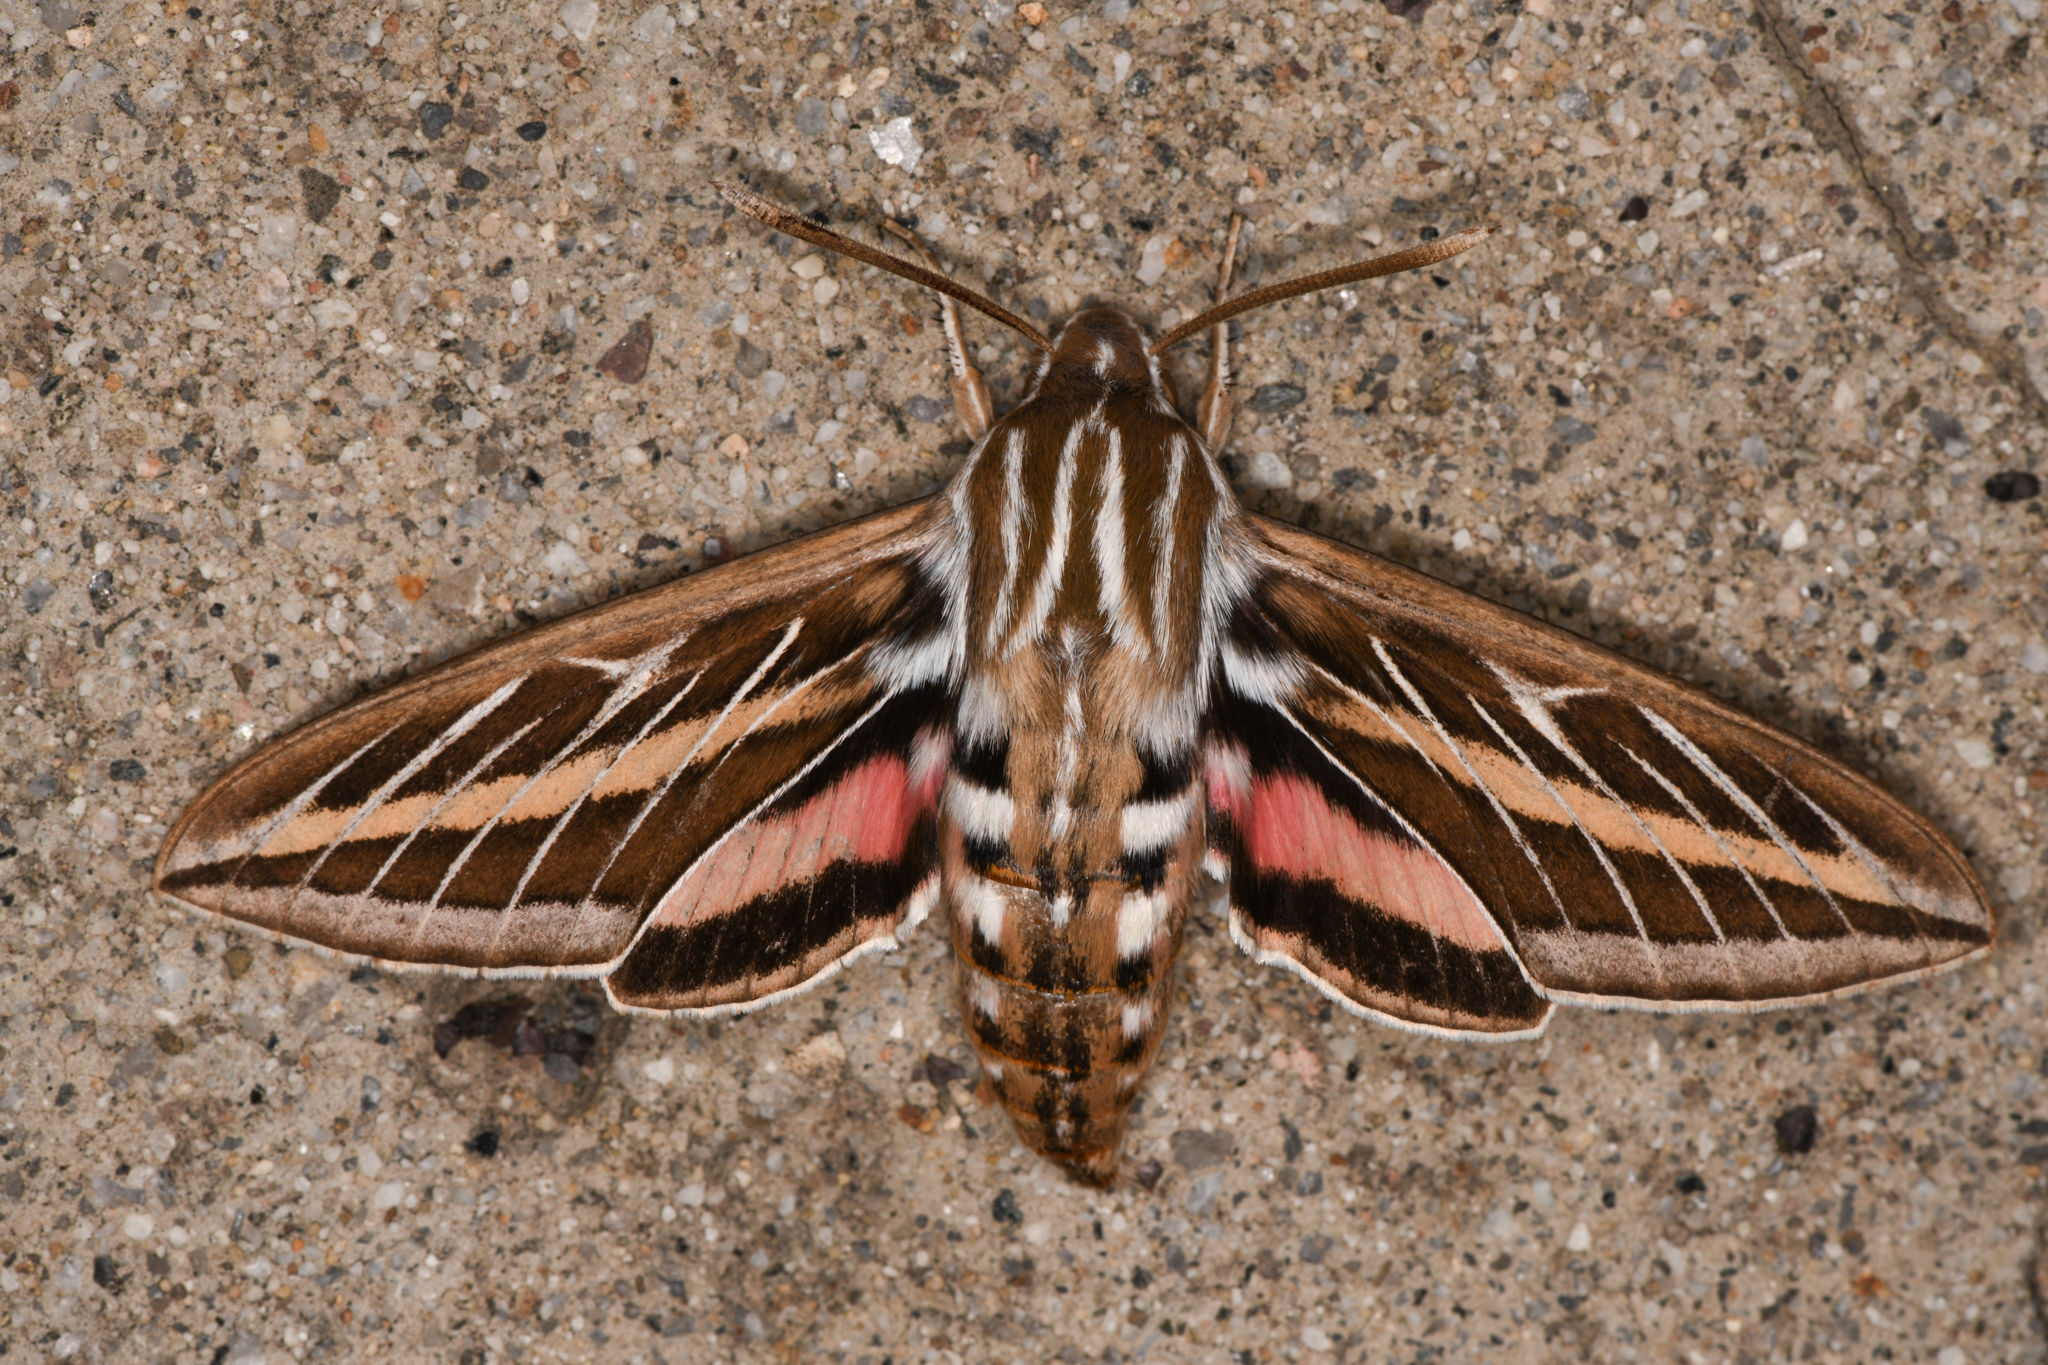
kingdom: Animalia
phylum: Arthropoda
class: Insecta
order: Lepidoptera
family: Sphingidae
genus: Hyles
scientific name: Hyles lineata
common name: White-lined sphinx
